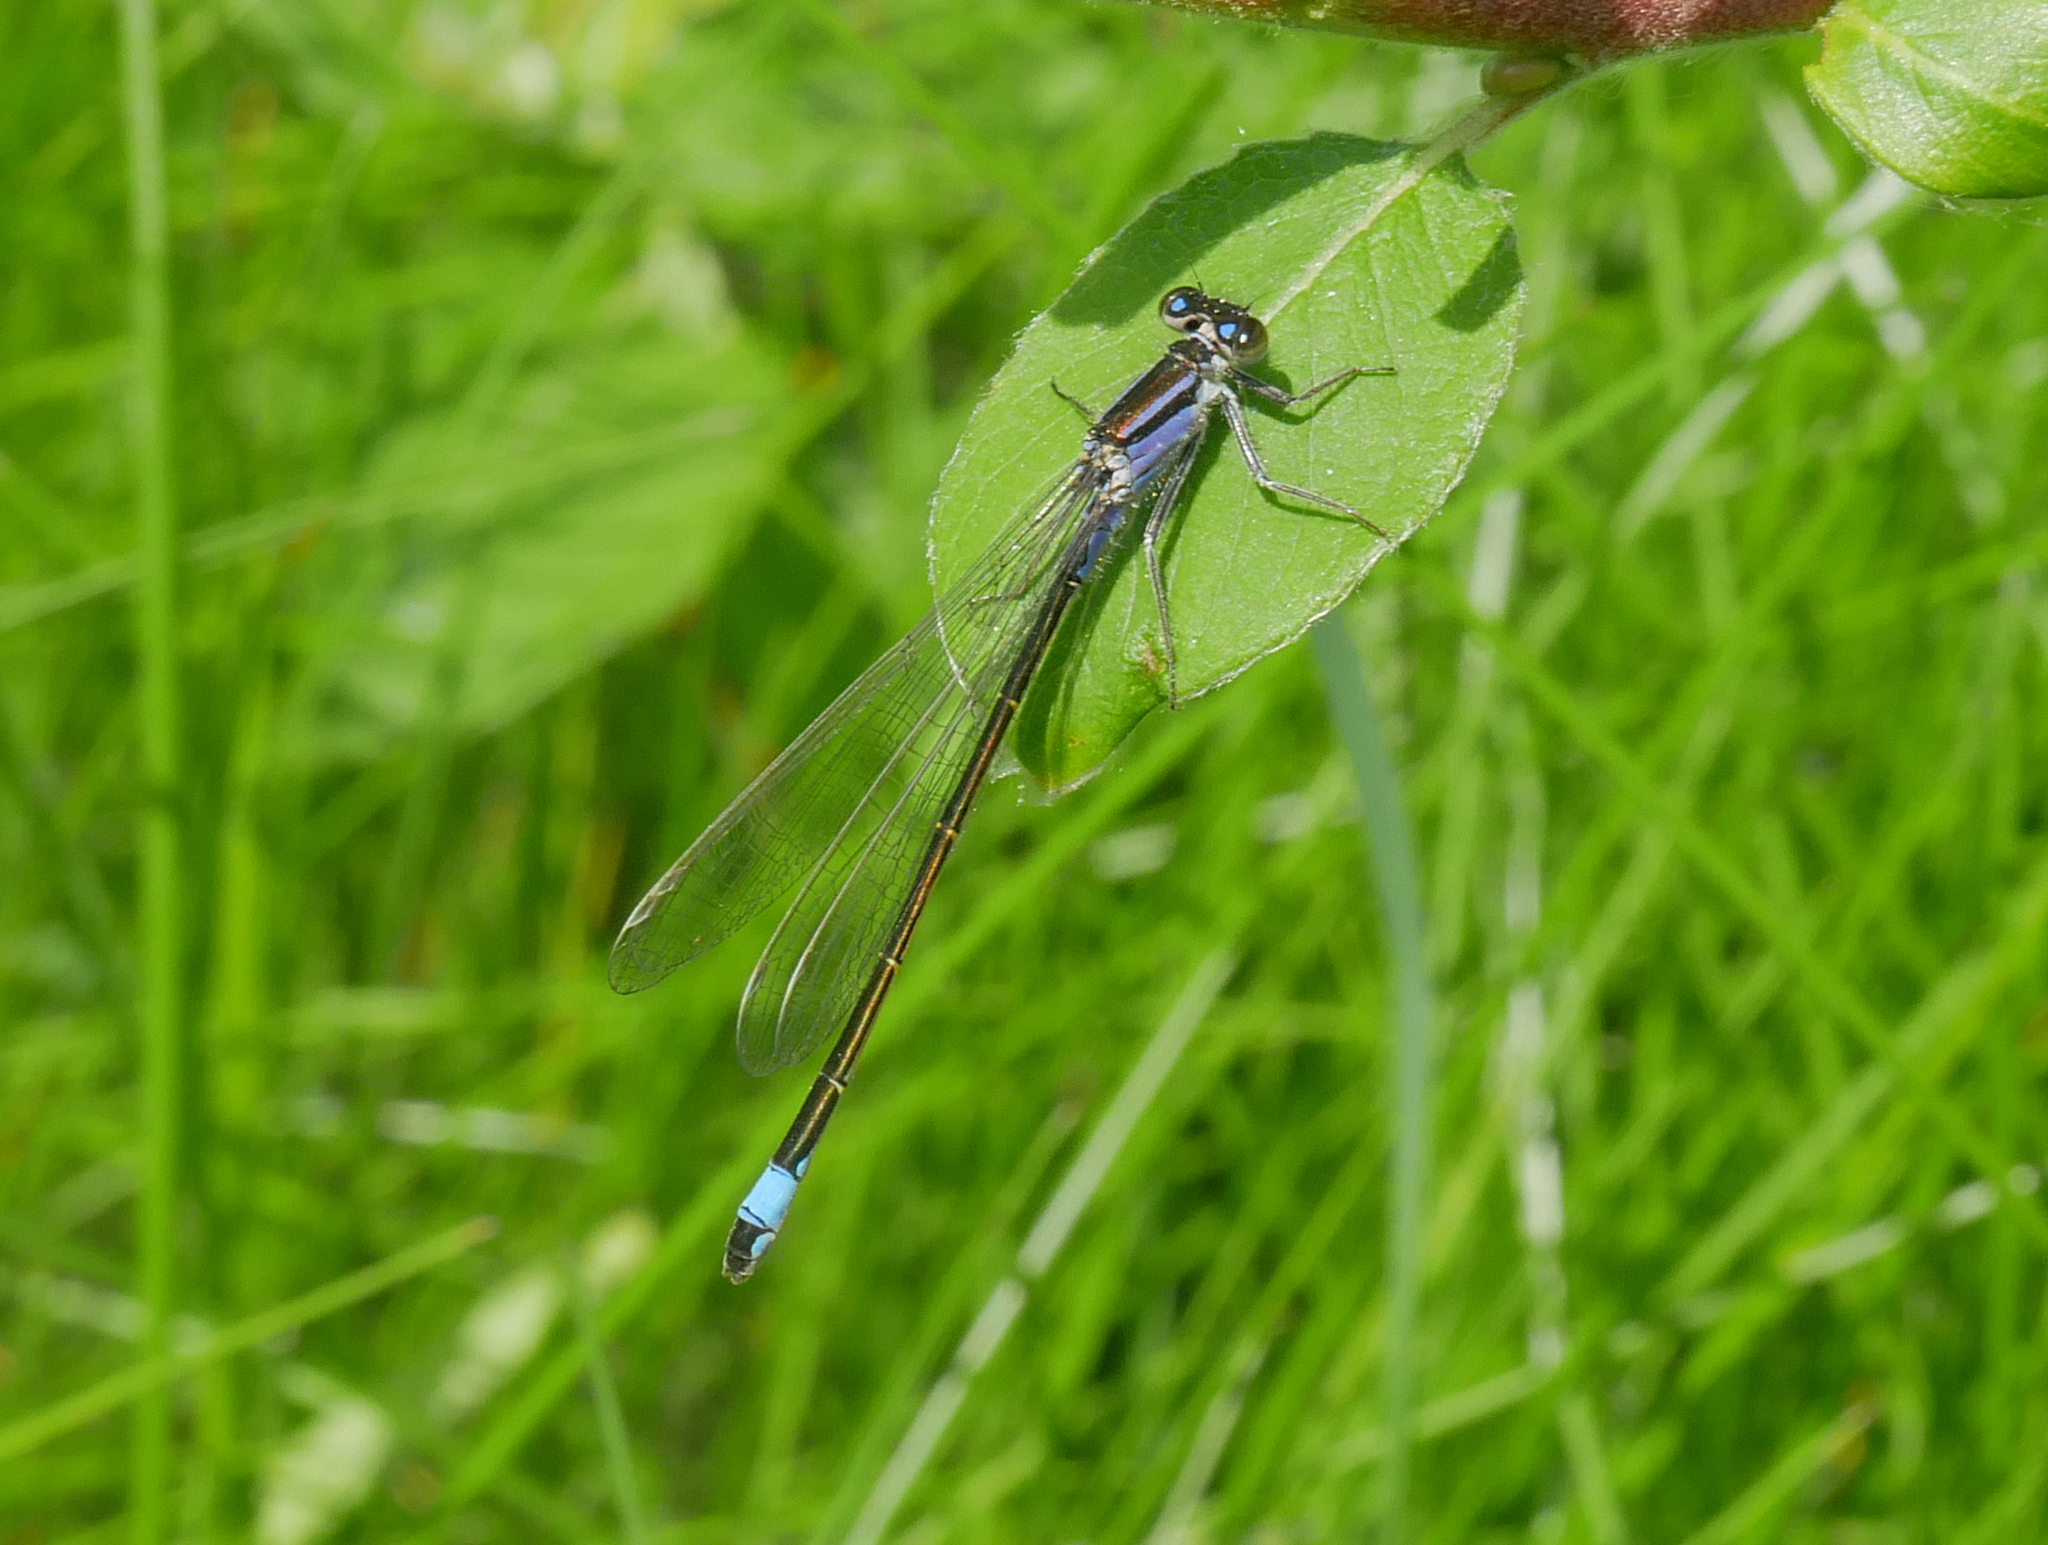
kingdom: Animalia
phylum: Arthropoda
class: Insecta
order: Odonata
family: Coenagrionidae
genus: Ischnura
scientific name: Ischnura elegans
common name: Blue-tailed damselfly
